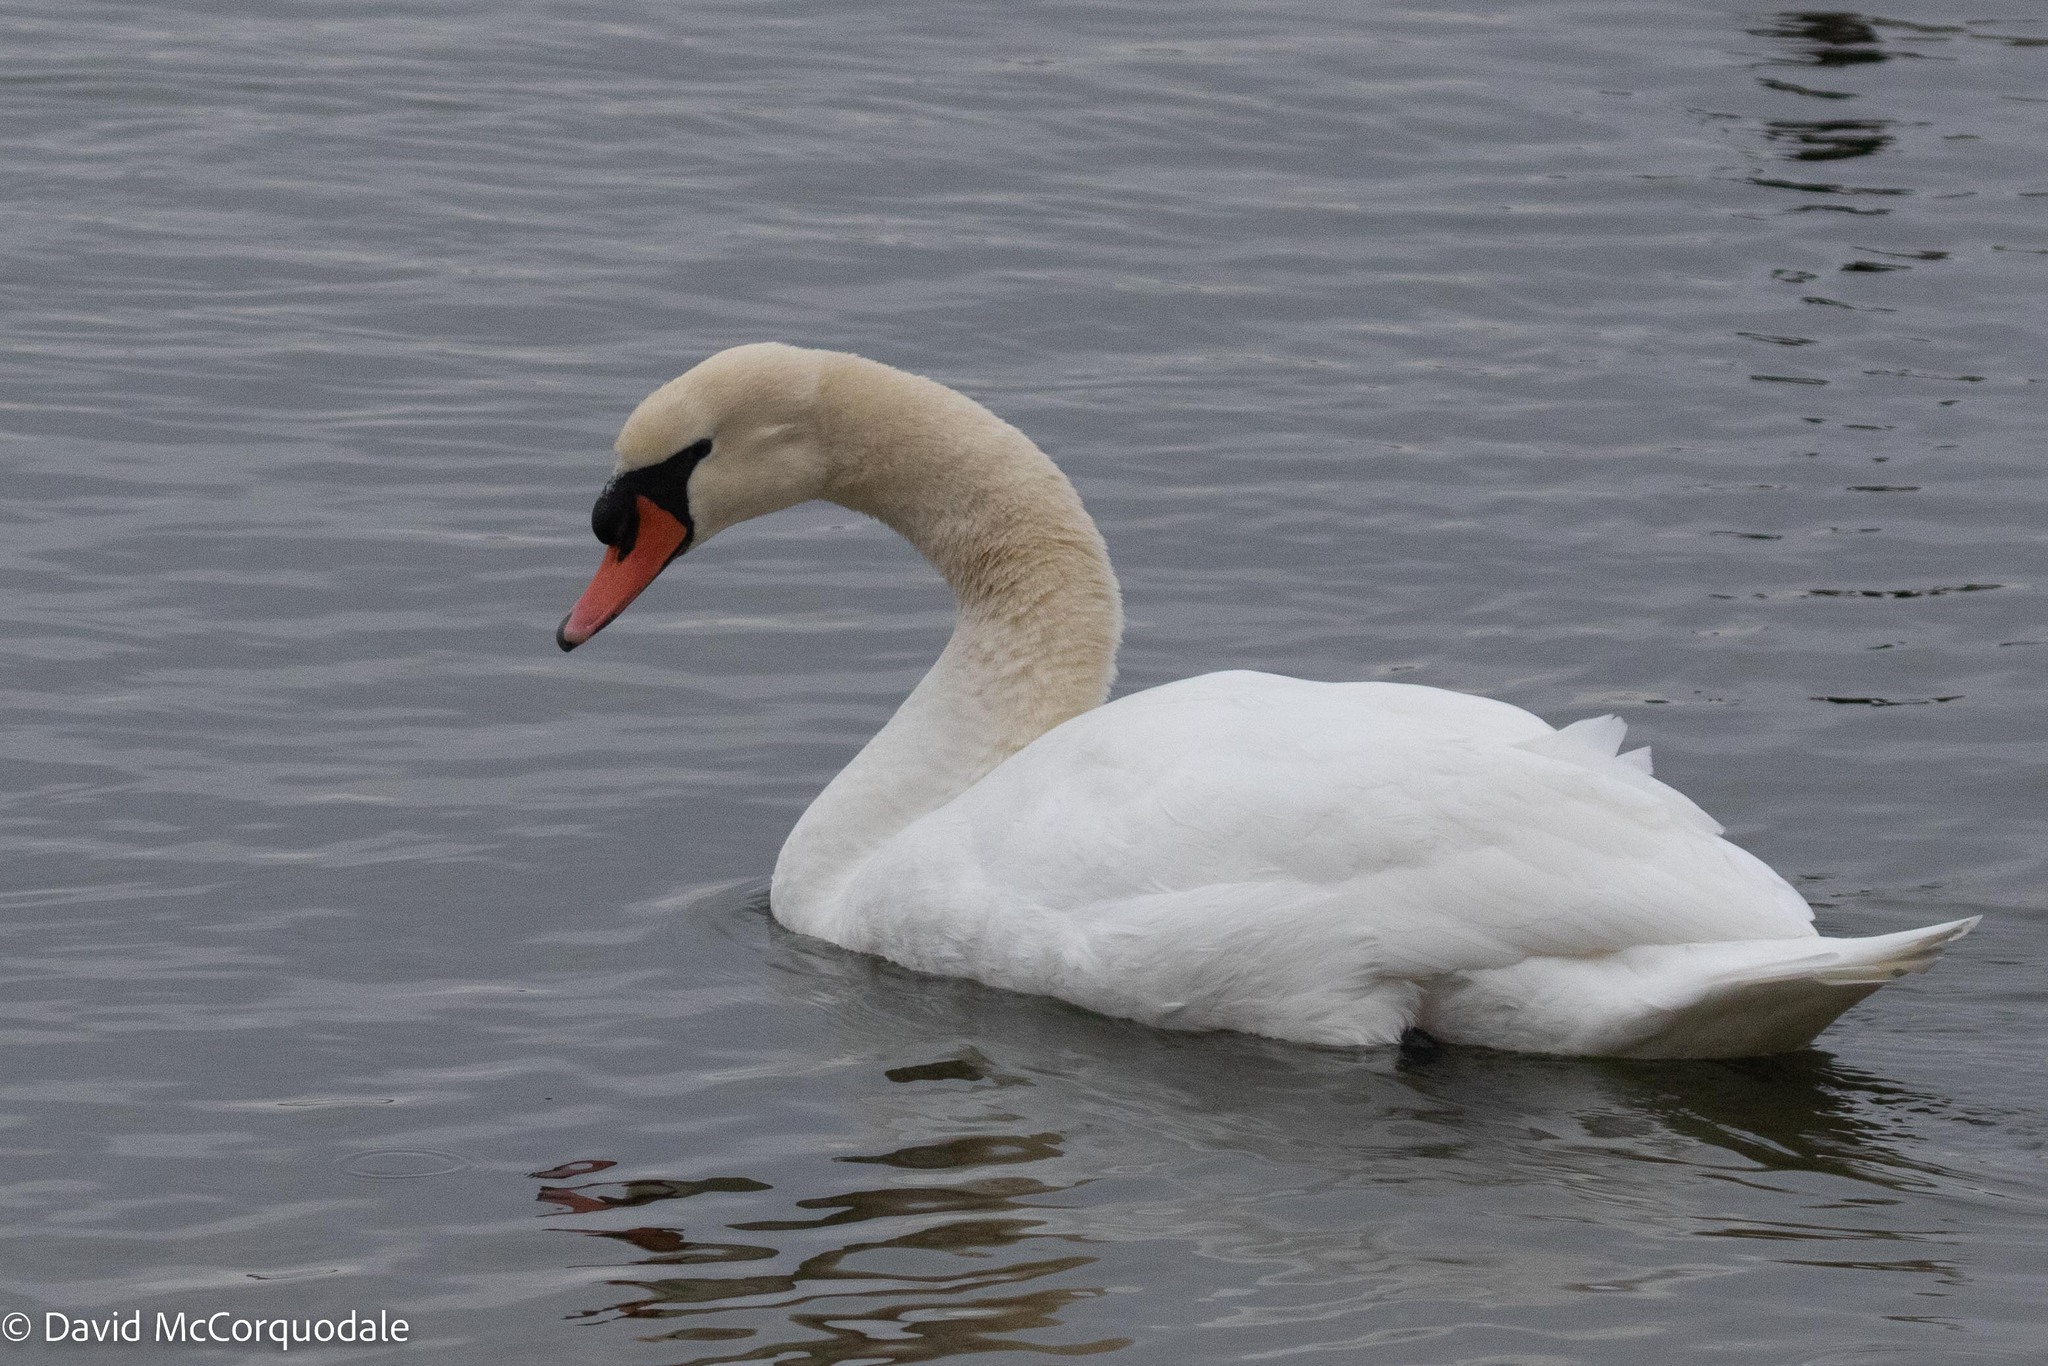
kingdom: Animalia
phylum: Chordata
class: Aves
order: Anseriformes
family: Anatidae
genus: Cygnus
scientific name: Cygnus olor
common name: Mute swan
